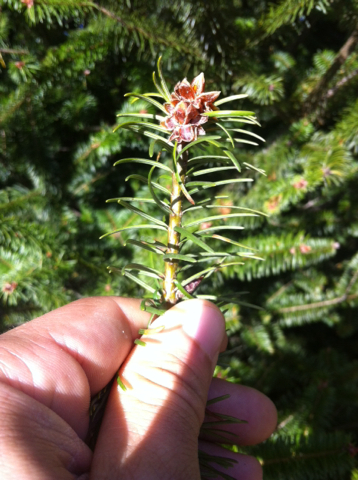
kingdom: Plantae
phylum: Tracheophyta
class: Pinopsida
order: Pinales
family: Pinaceae
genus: Pseudotsuga
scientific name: Pseudotsuga menziesii
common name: Douglas fir
